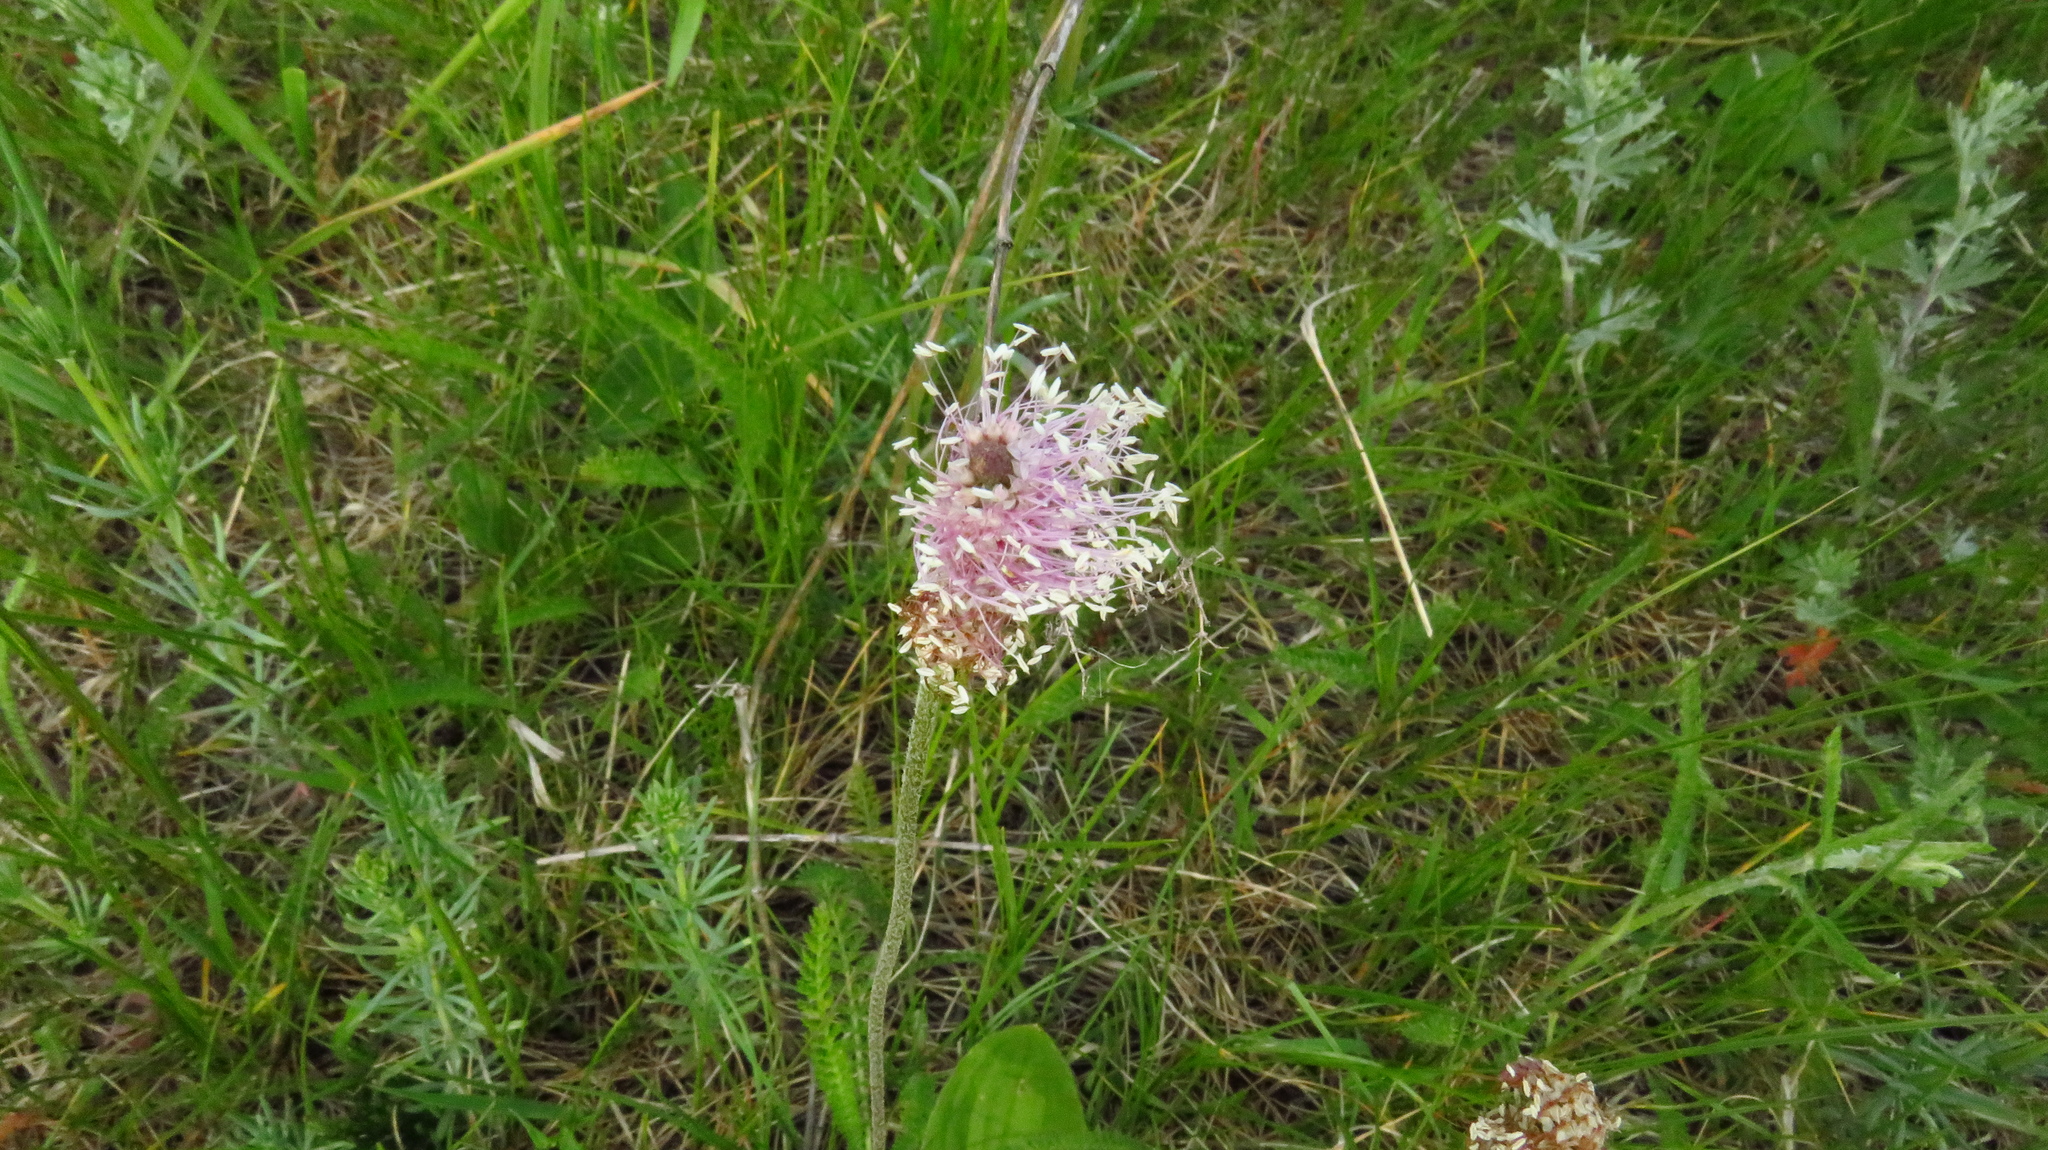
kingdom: Plantae
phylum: Tracheophyta
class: Magnoliopsida
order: Lamiales
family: Plantaginaceae
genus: Plantago
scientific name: Plantago media
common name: Hoary plantain
